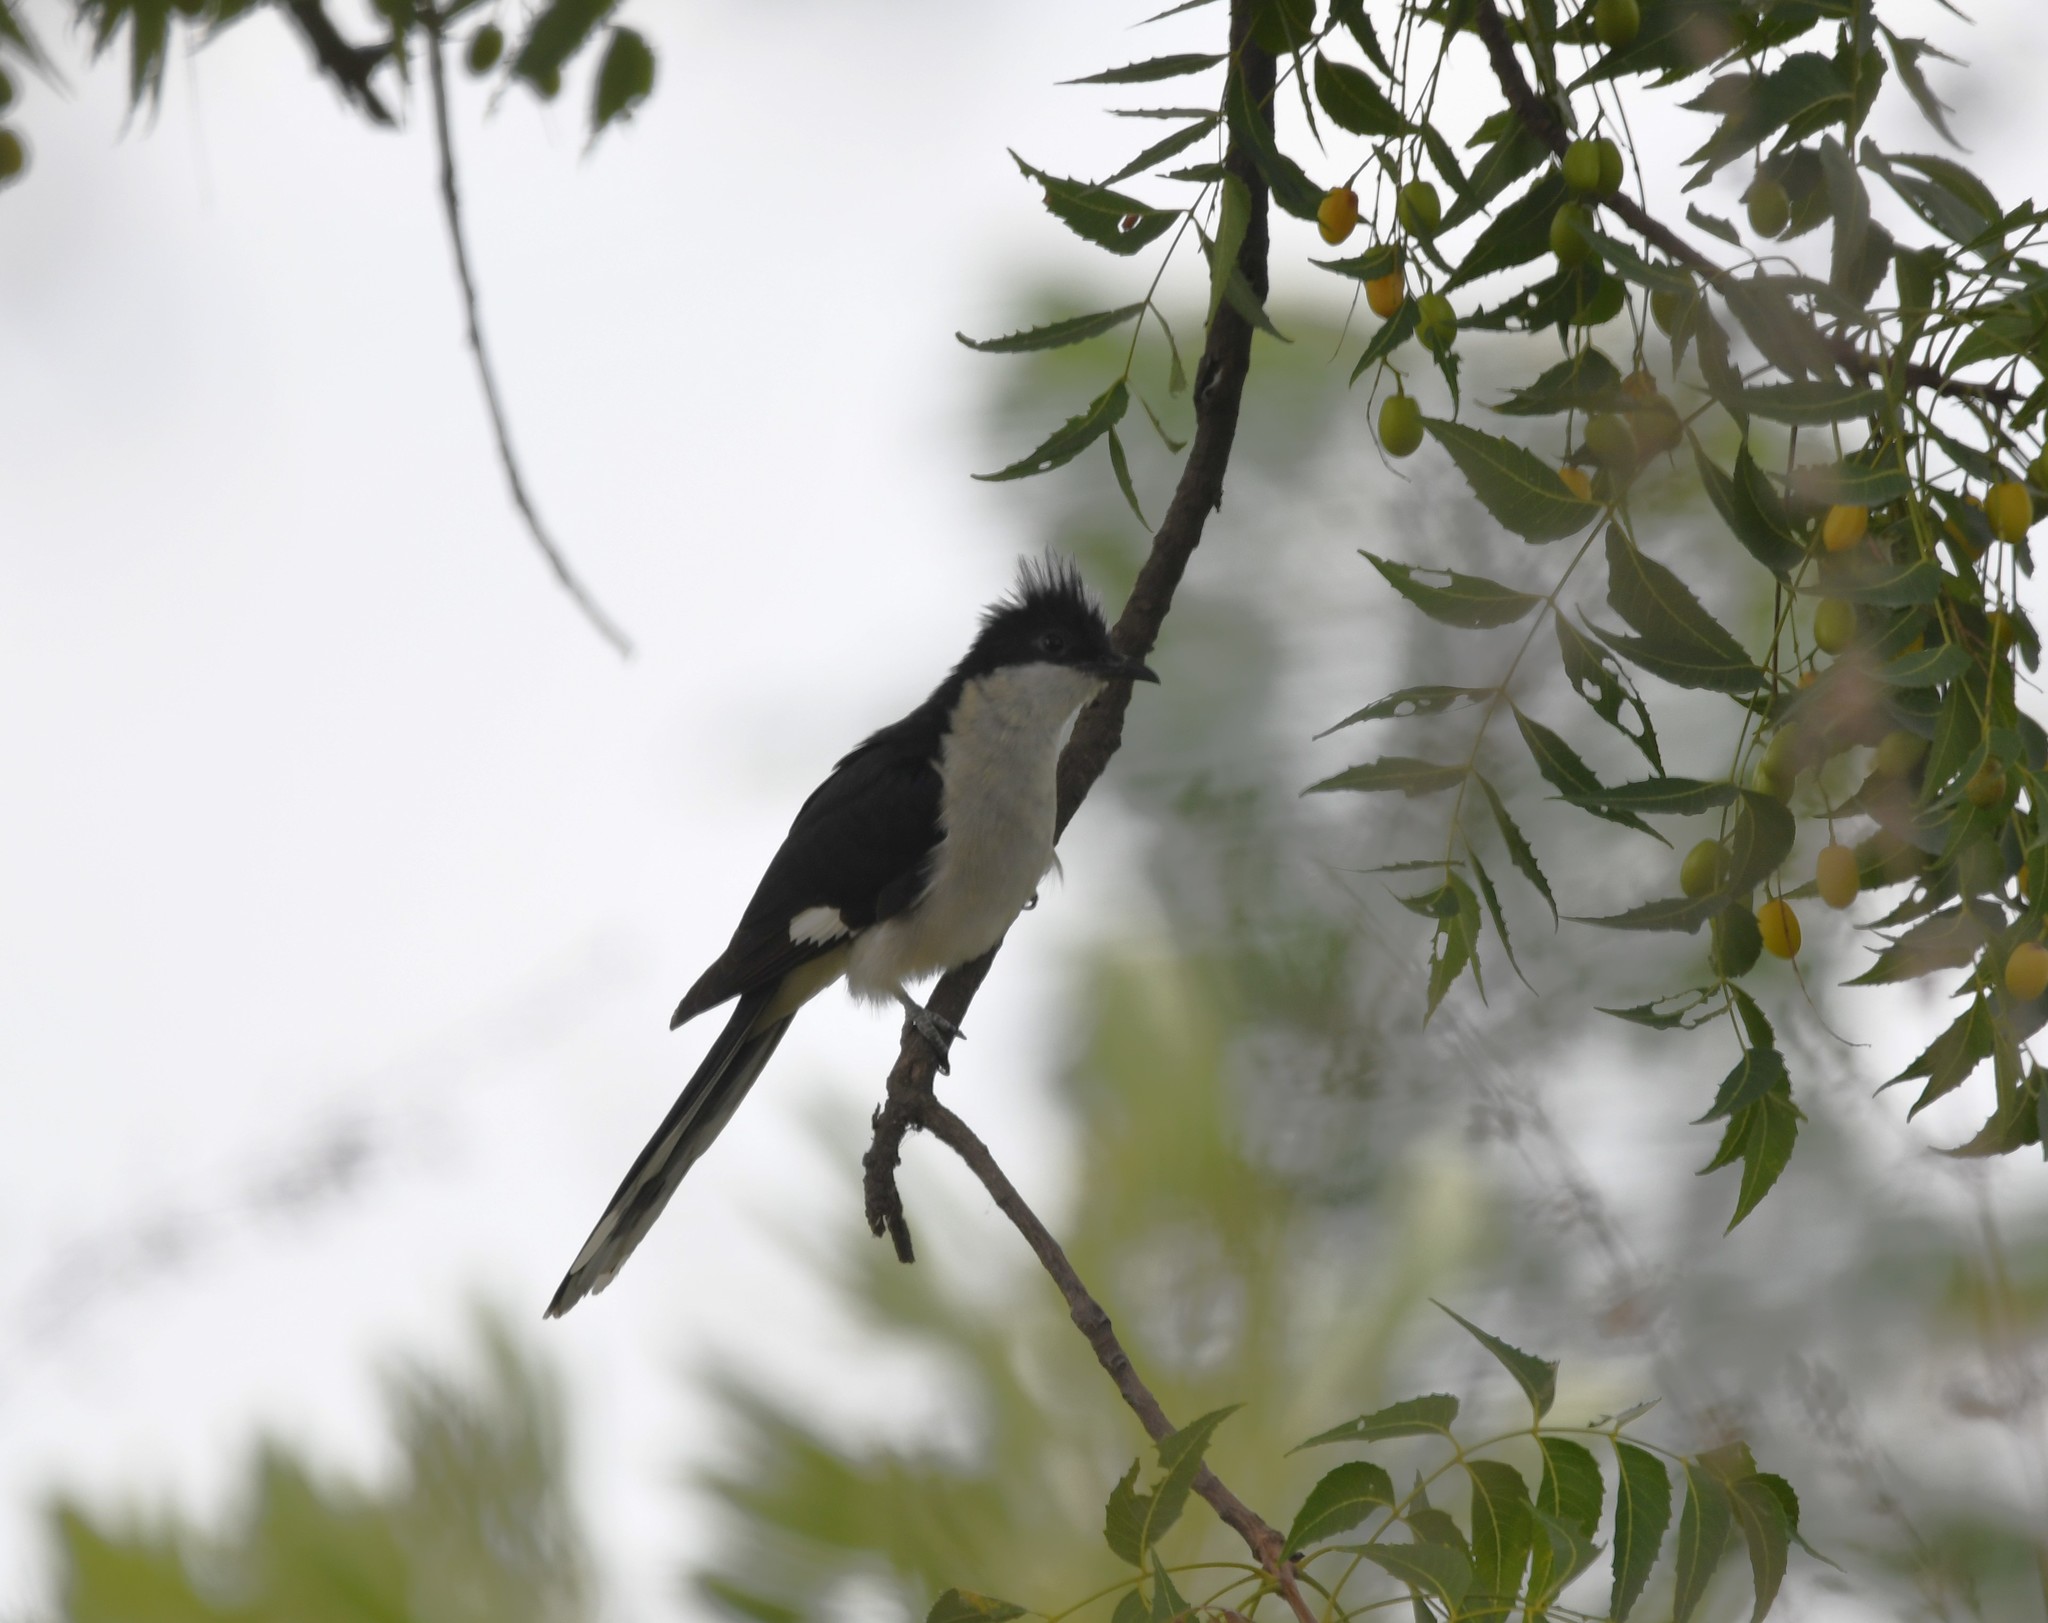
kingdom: Animalia
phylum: Chordata
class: Aves
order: Cuculiformes
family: Cuculidae
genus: Clamator
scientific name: Clamator jacobinus
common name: Jacobin cuckoo
